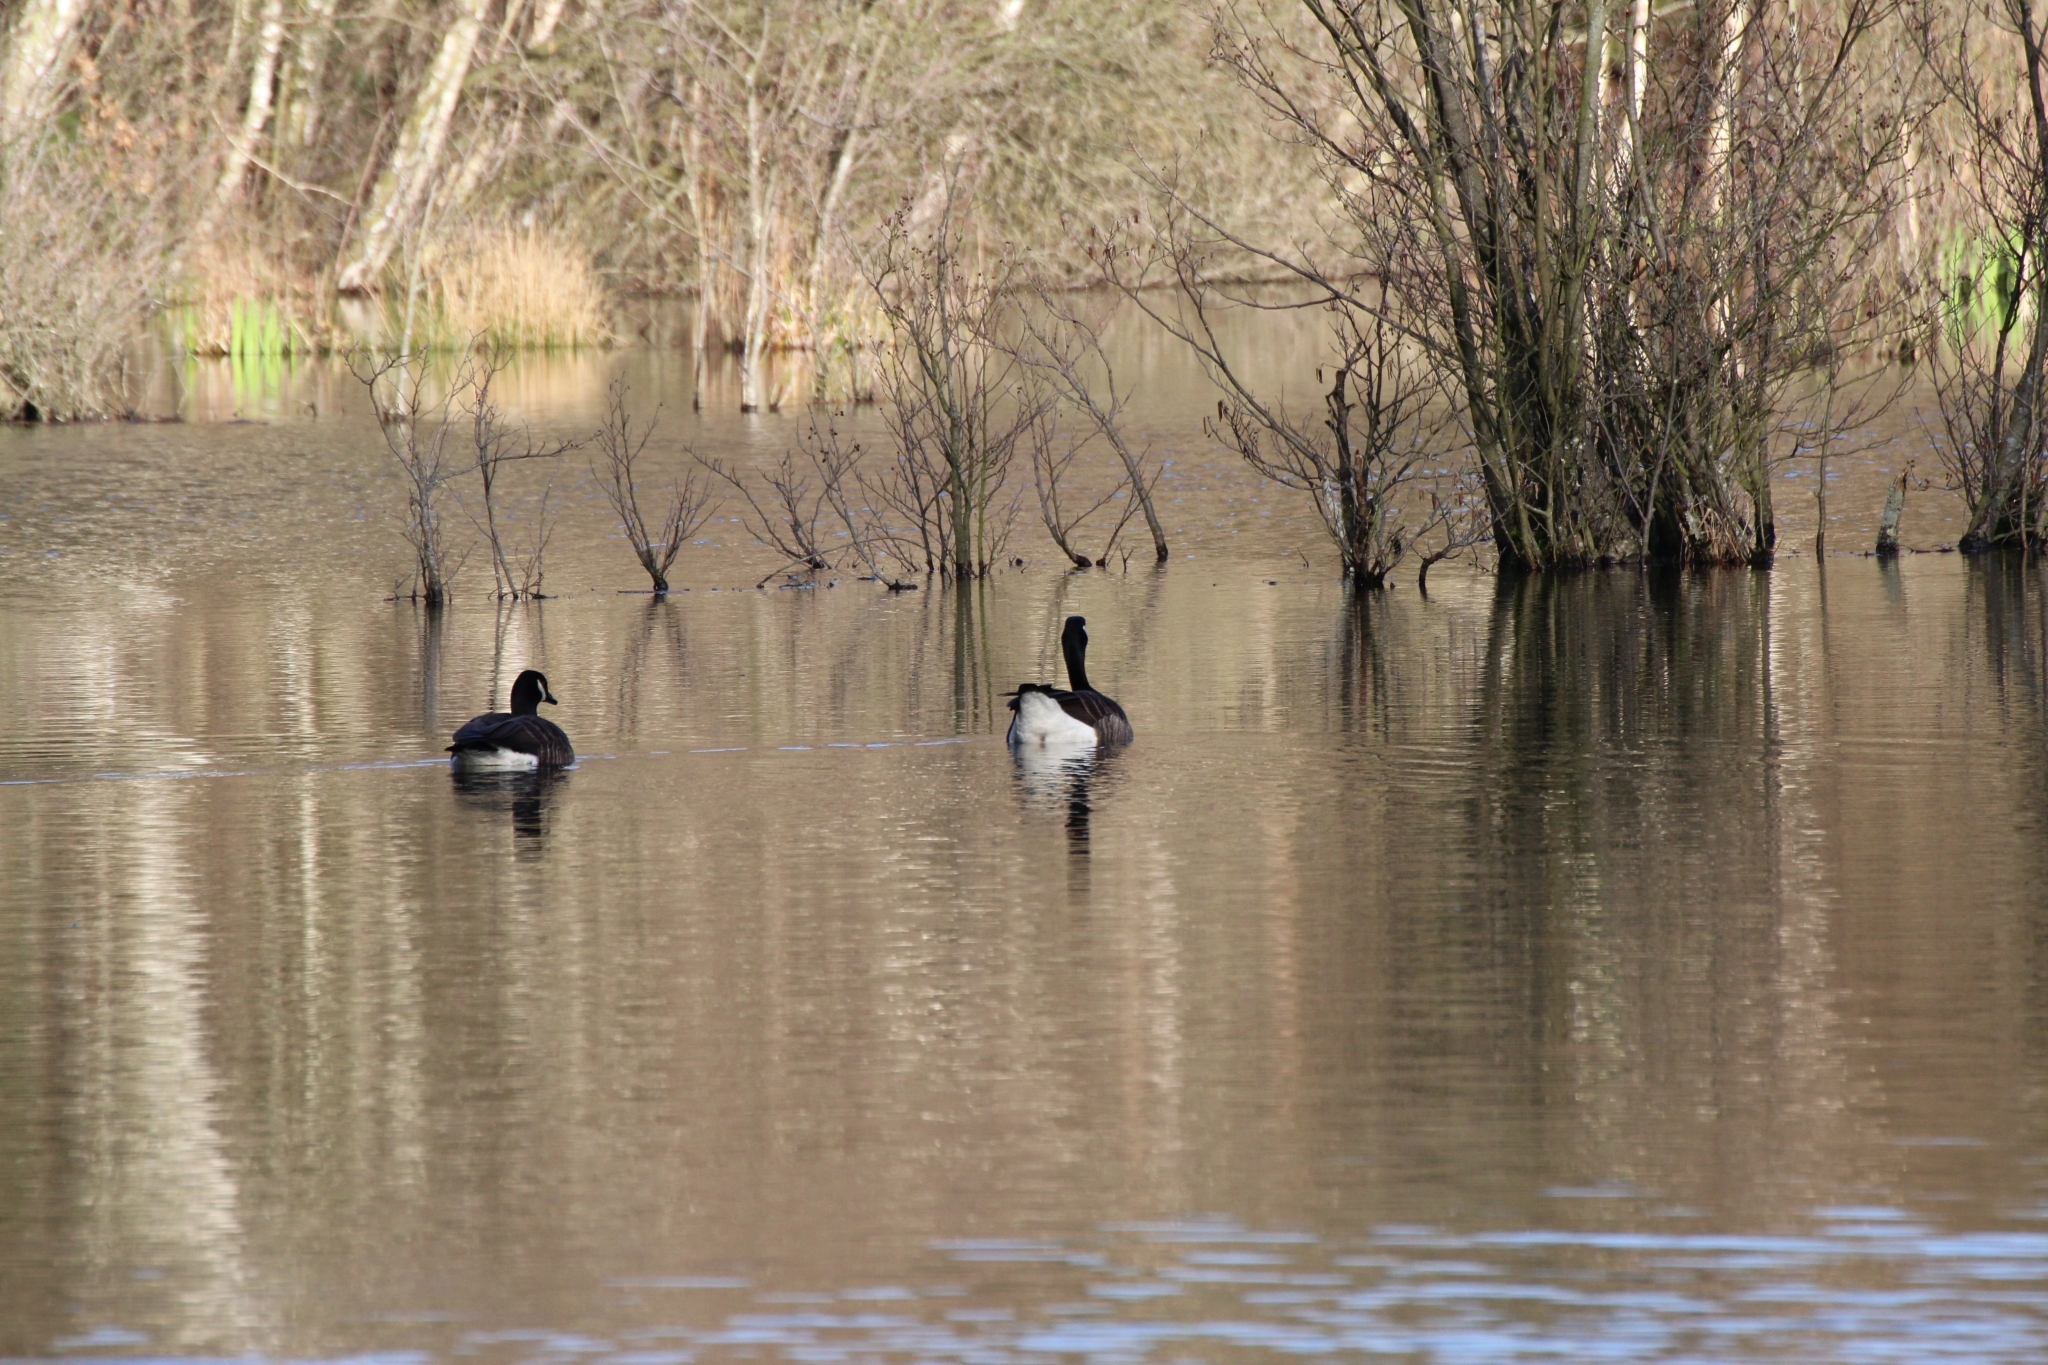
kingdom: Animalia
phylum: Chordata
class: Aves
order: Anseriformes
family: Anatidae
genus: Branta
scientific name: Branta canadensis
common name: Canada goose
